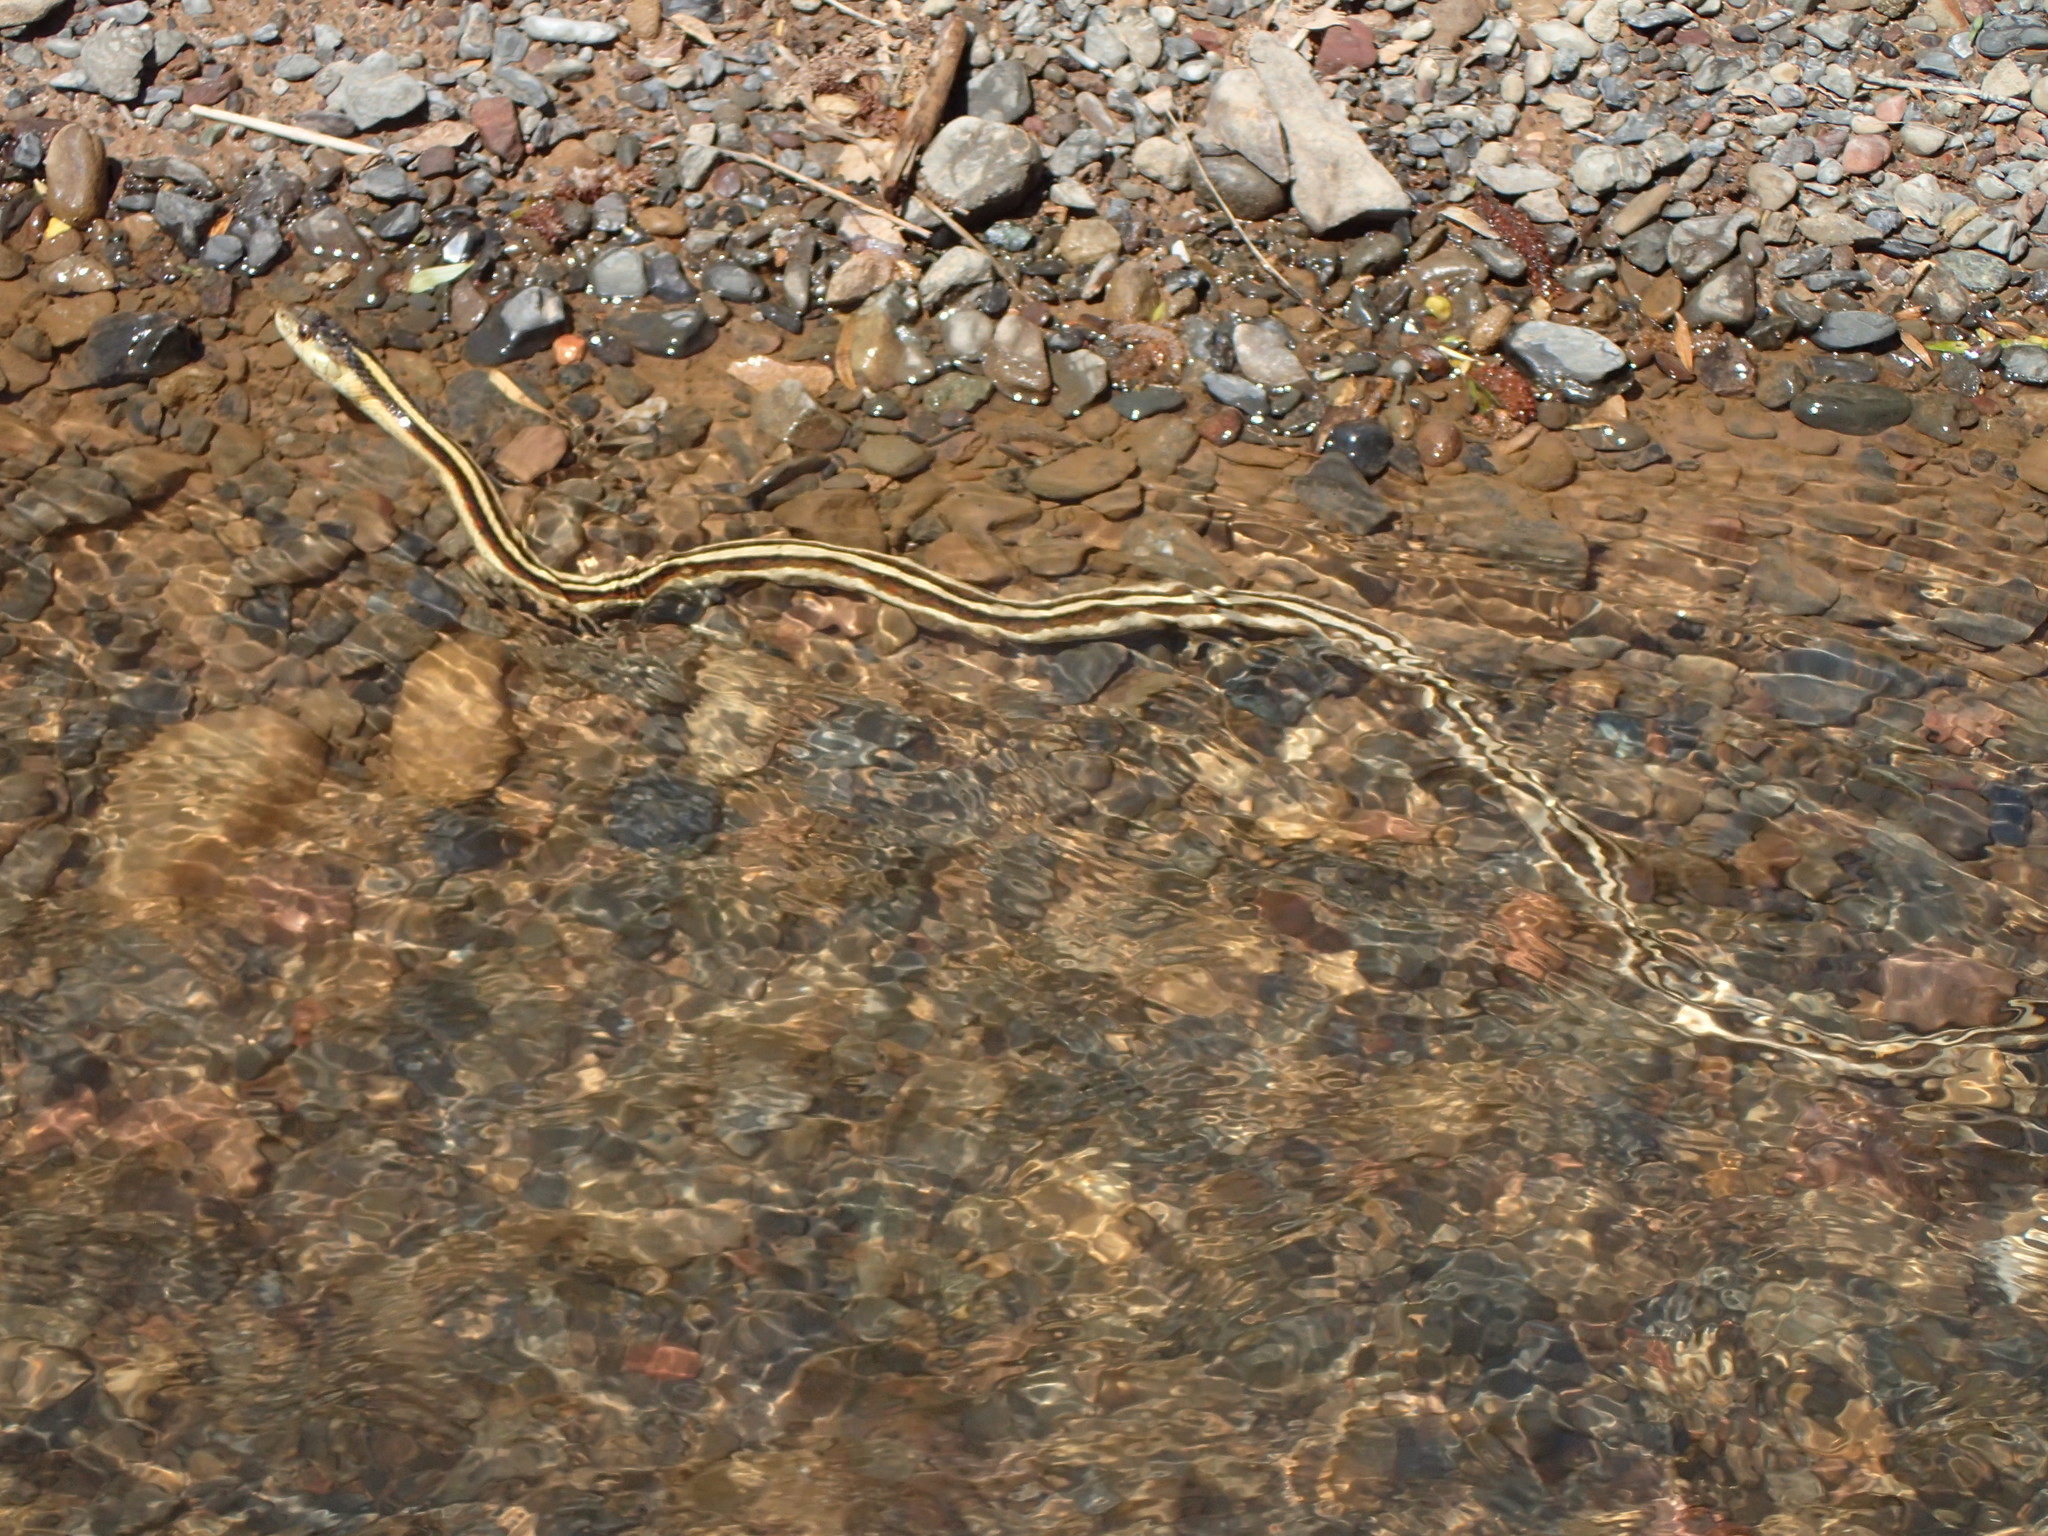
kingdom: Animalia
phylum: Chordata
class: Squamata
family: Colubridae
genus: Thamnophis
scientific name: Thamnophis sirtalis
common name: Common garter snake
